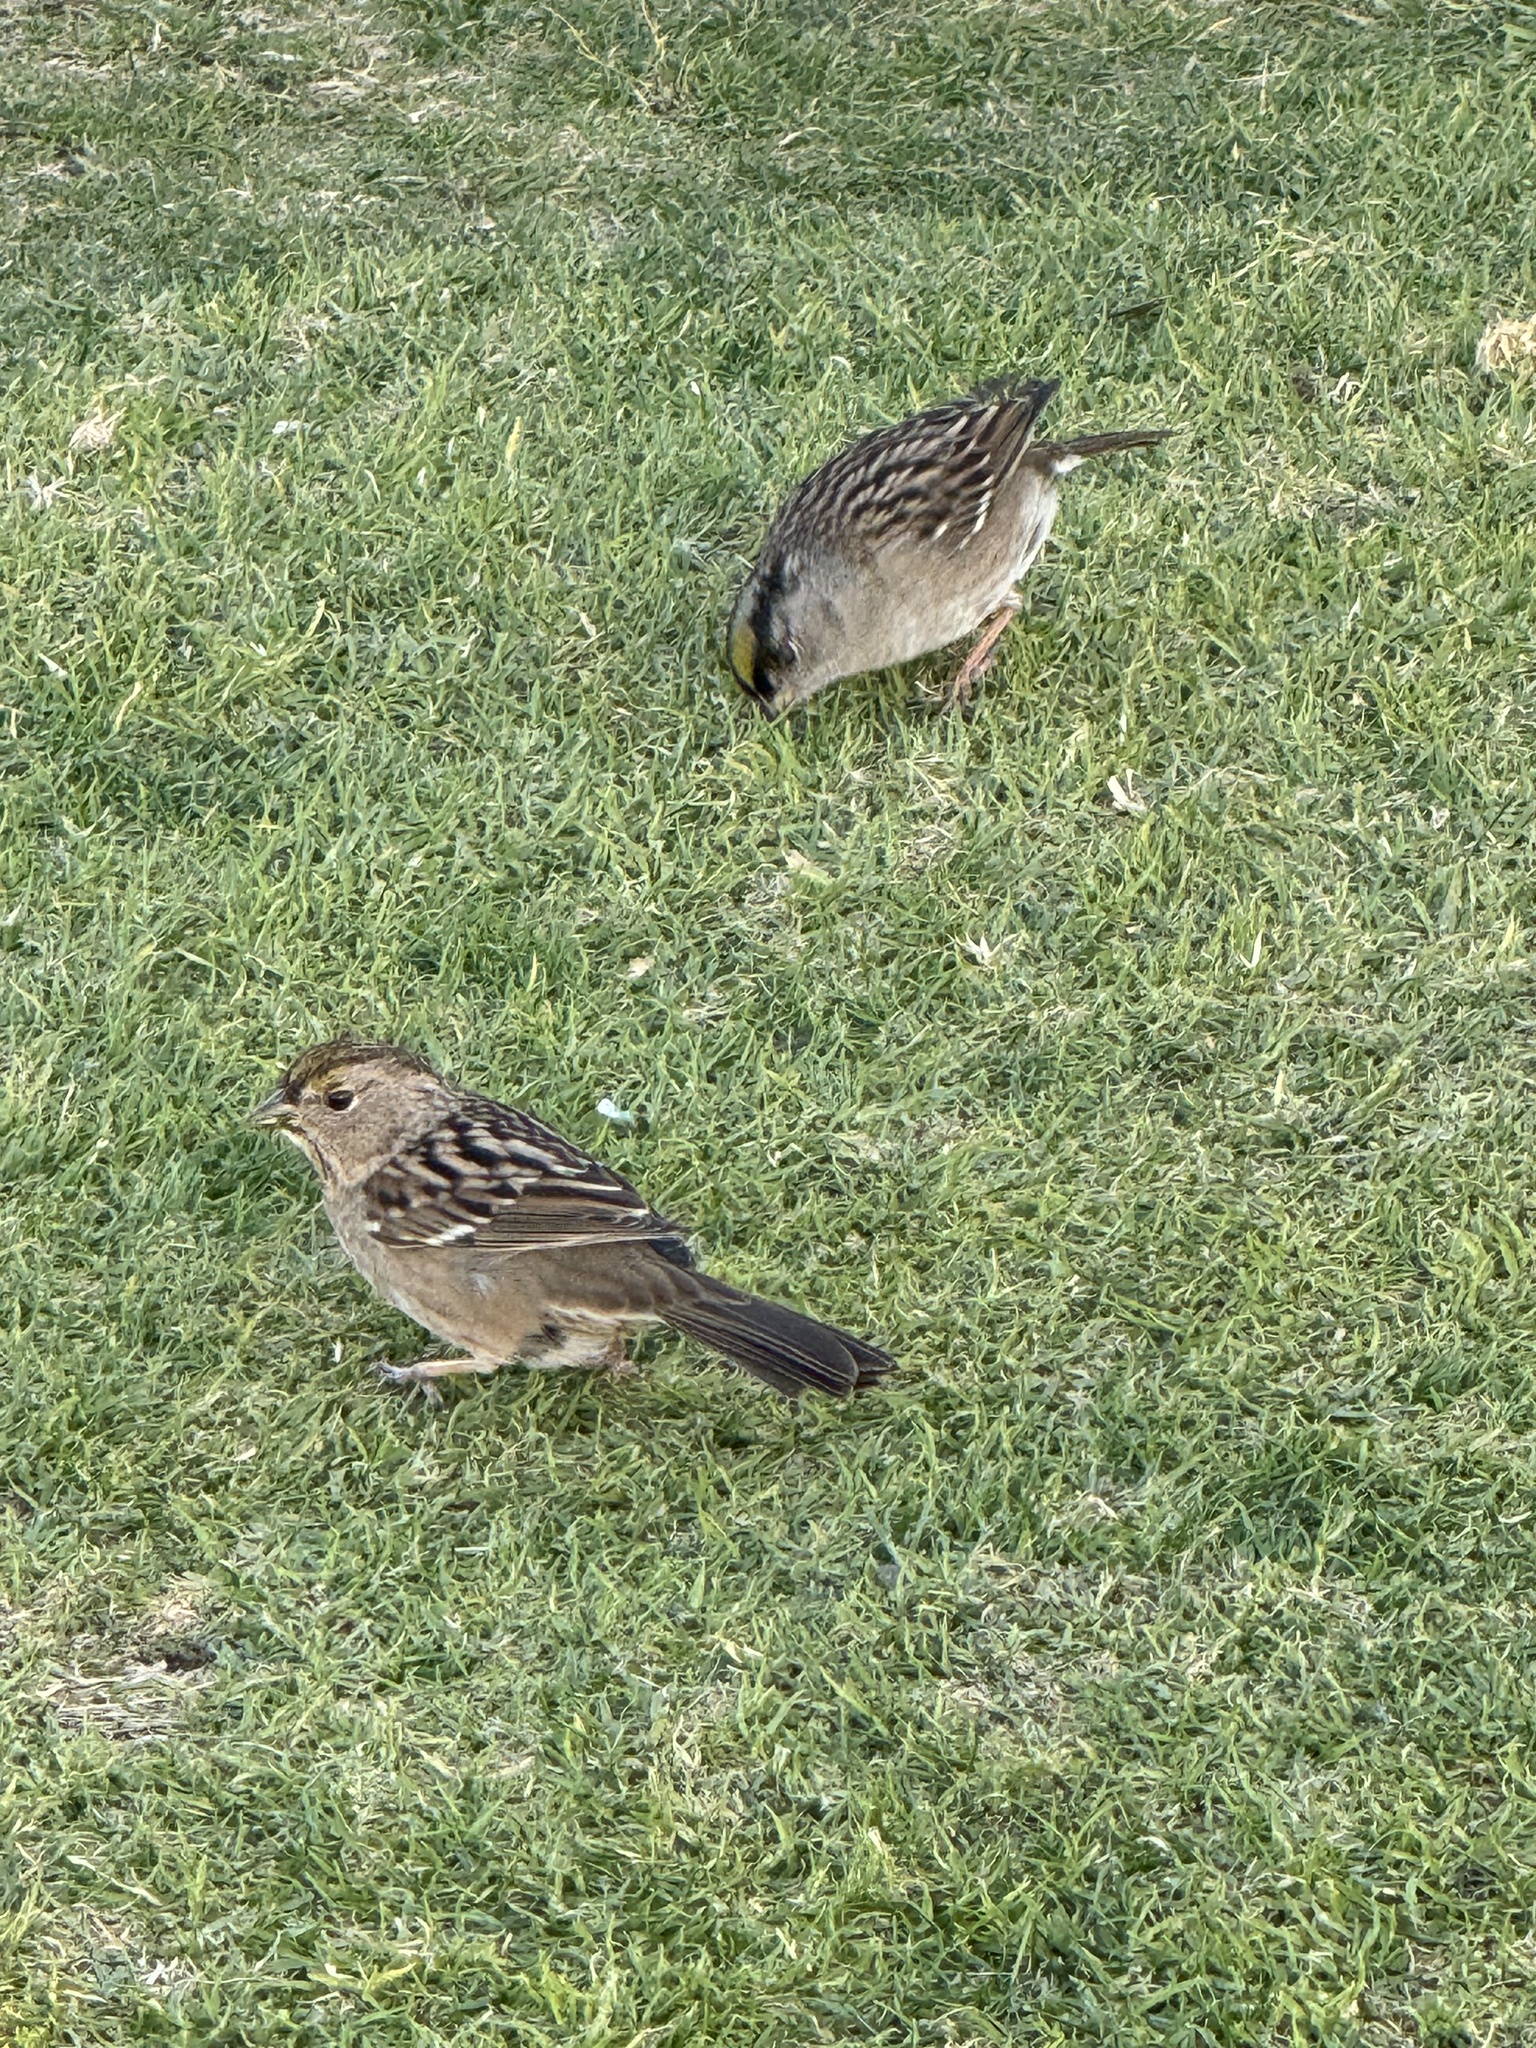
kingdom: Animalia
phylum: Chordata
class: Aves
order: Passeriformes
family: Passerellidae
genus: Zonotrichia
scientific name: Zonotrichia atricapilla
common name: Golden-crowned sparrow
